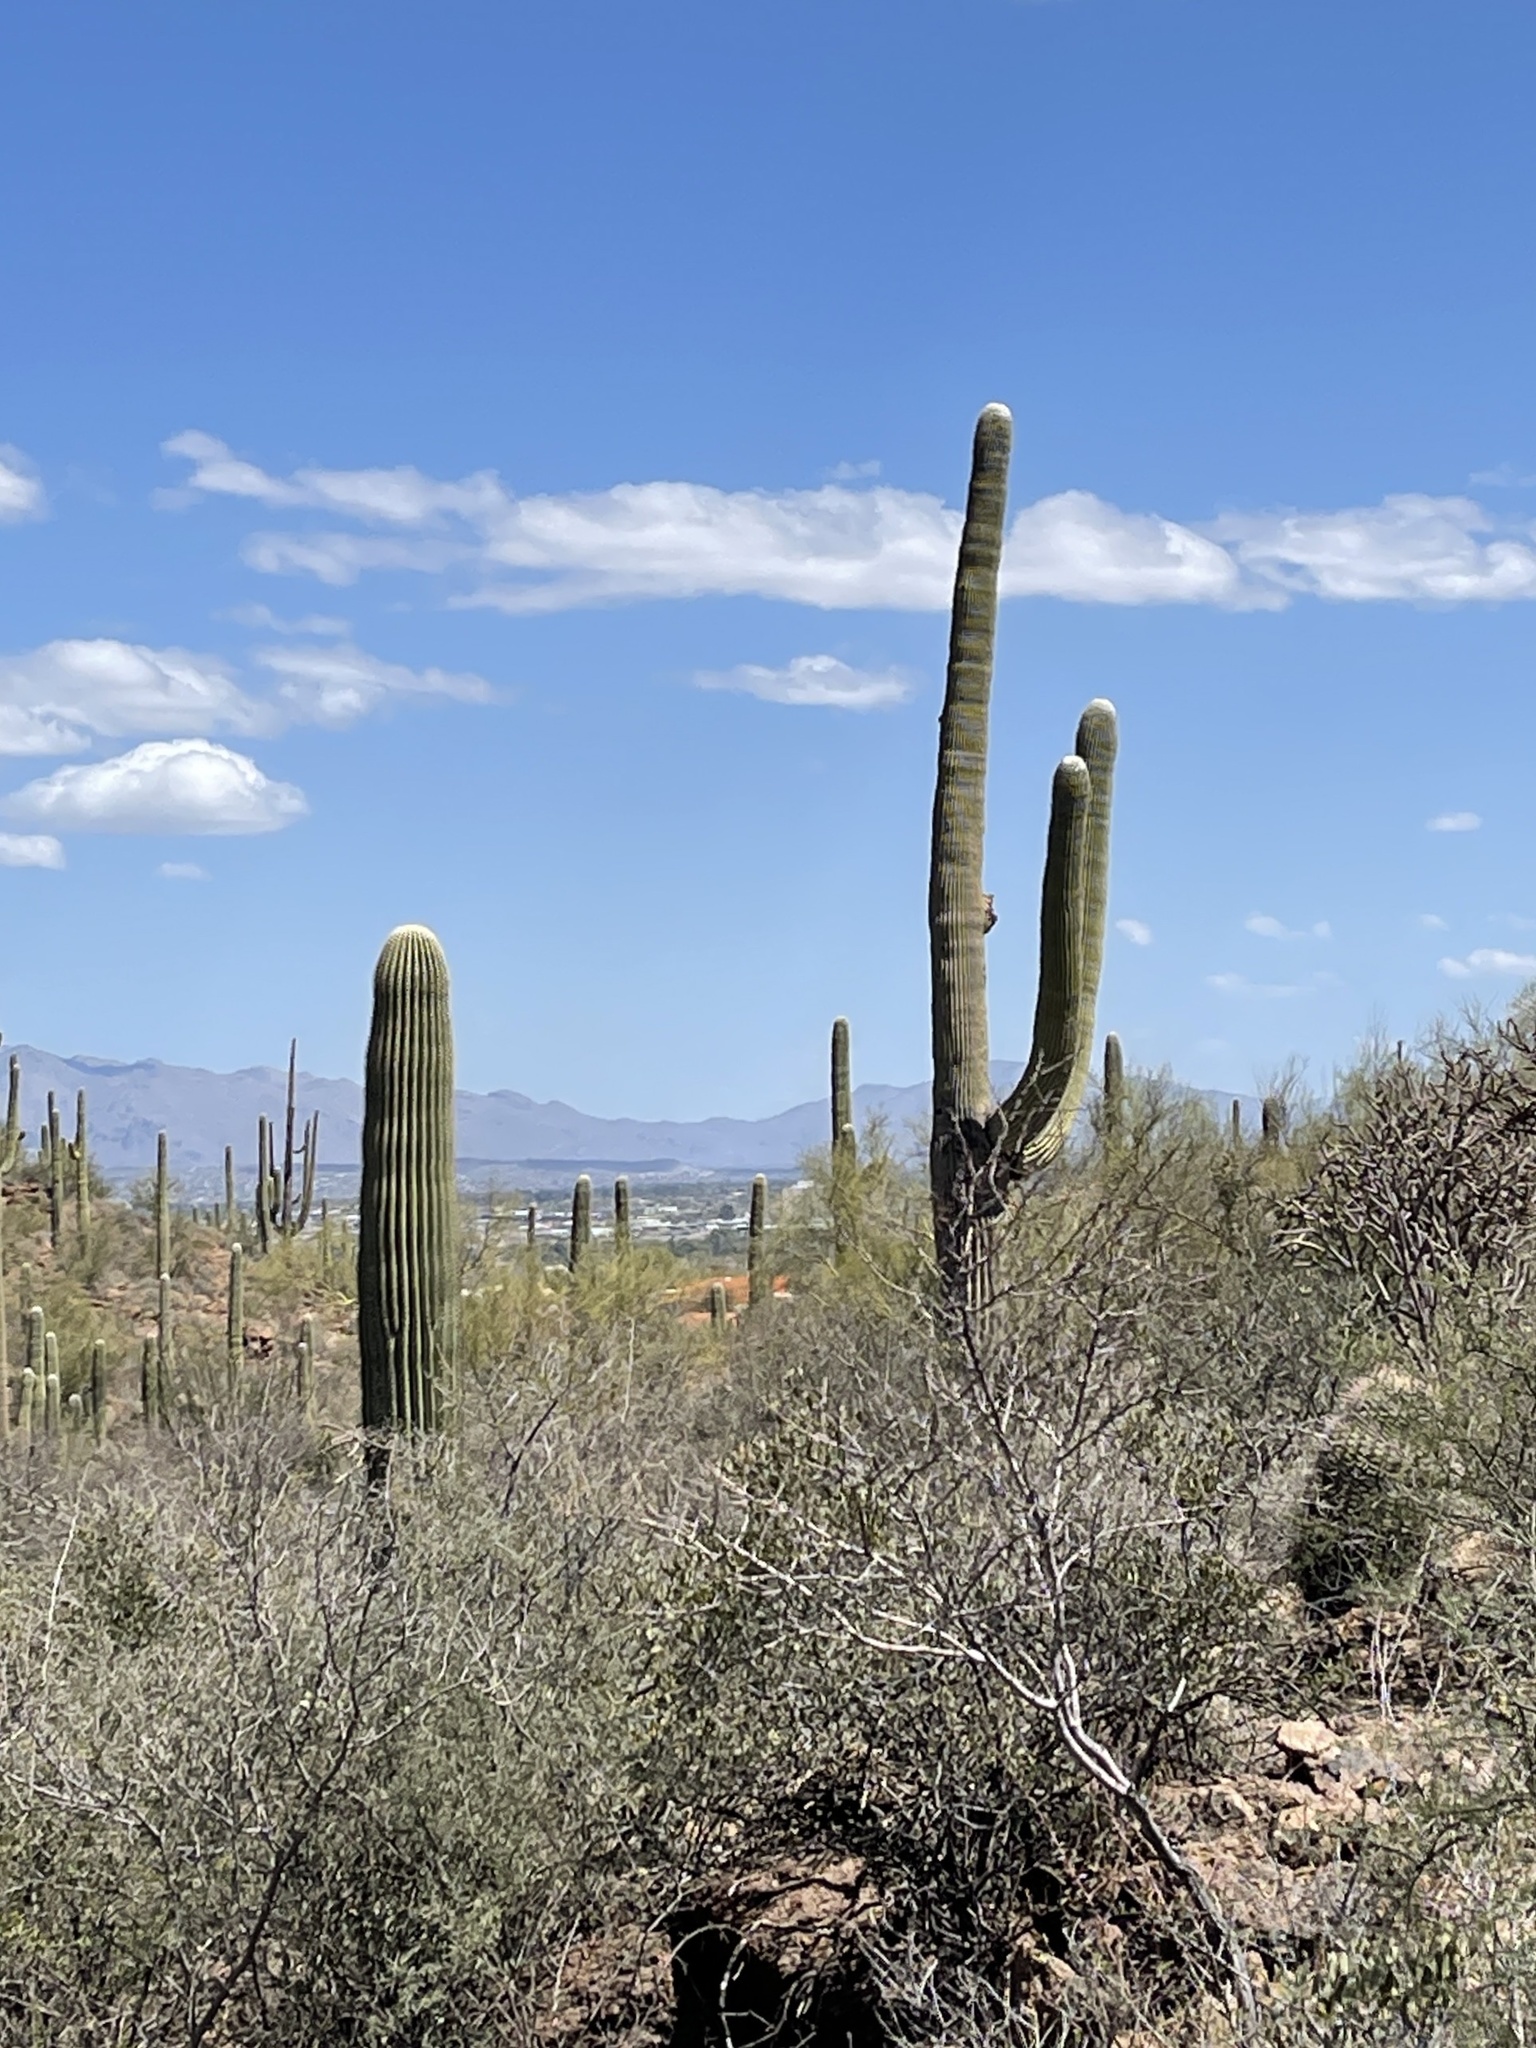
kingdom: Plantae
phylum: Tracheophyta
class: Magnoliopsida
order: Caryophyllales
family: Cactaceae
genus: Carnegiea
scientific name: Carnegiea gigantea
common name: Saguaro
